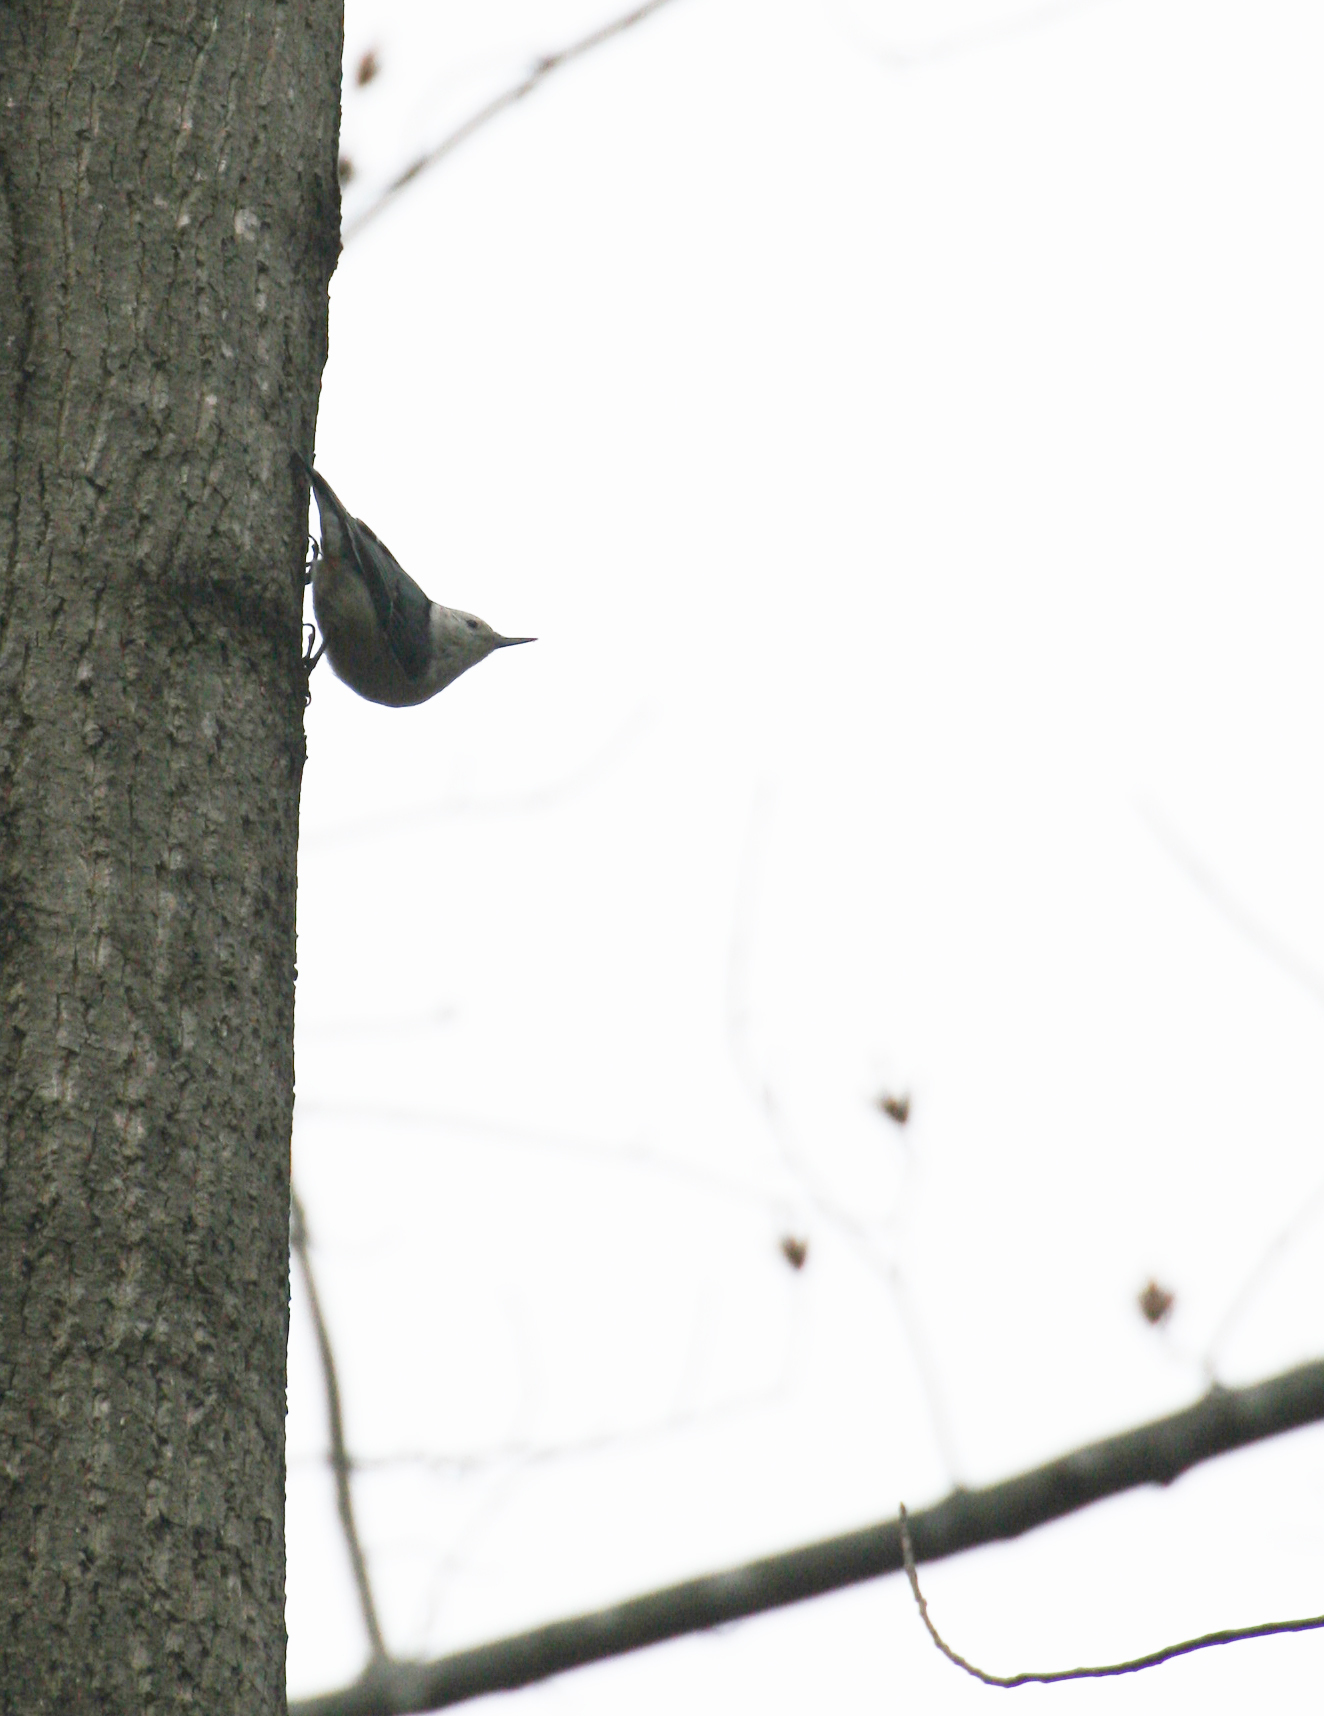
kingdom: Animalia
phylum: Chordata
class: Aves
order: Passeriformes
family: Sittidae
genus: Sitta
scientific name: Sitta carolinensis
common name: White-breasted nuthatch
